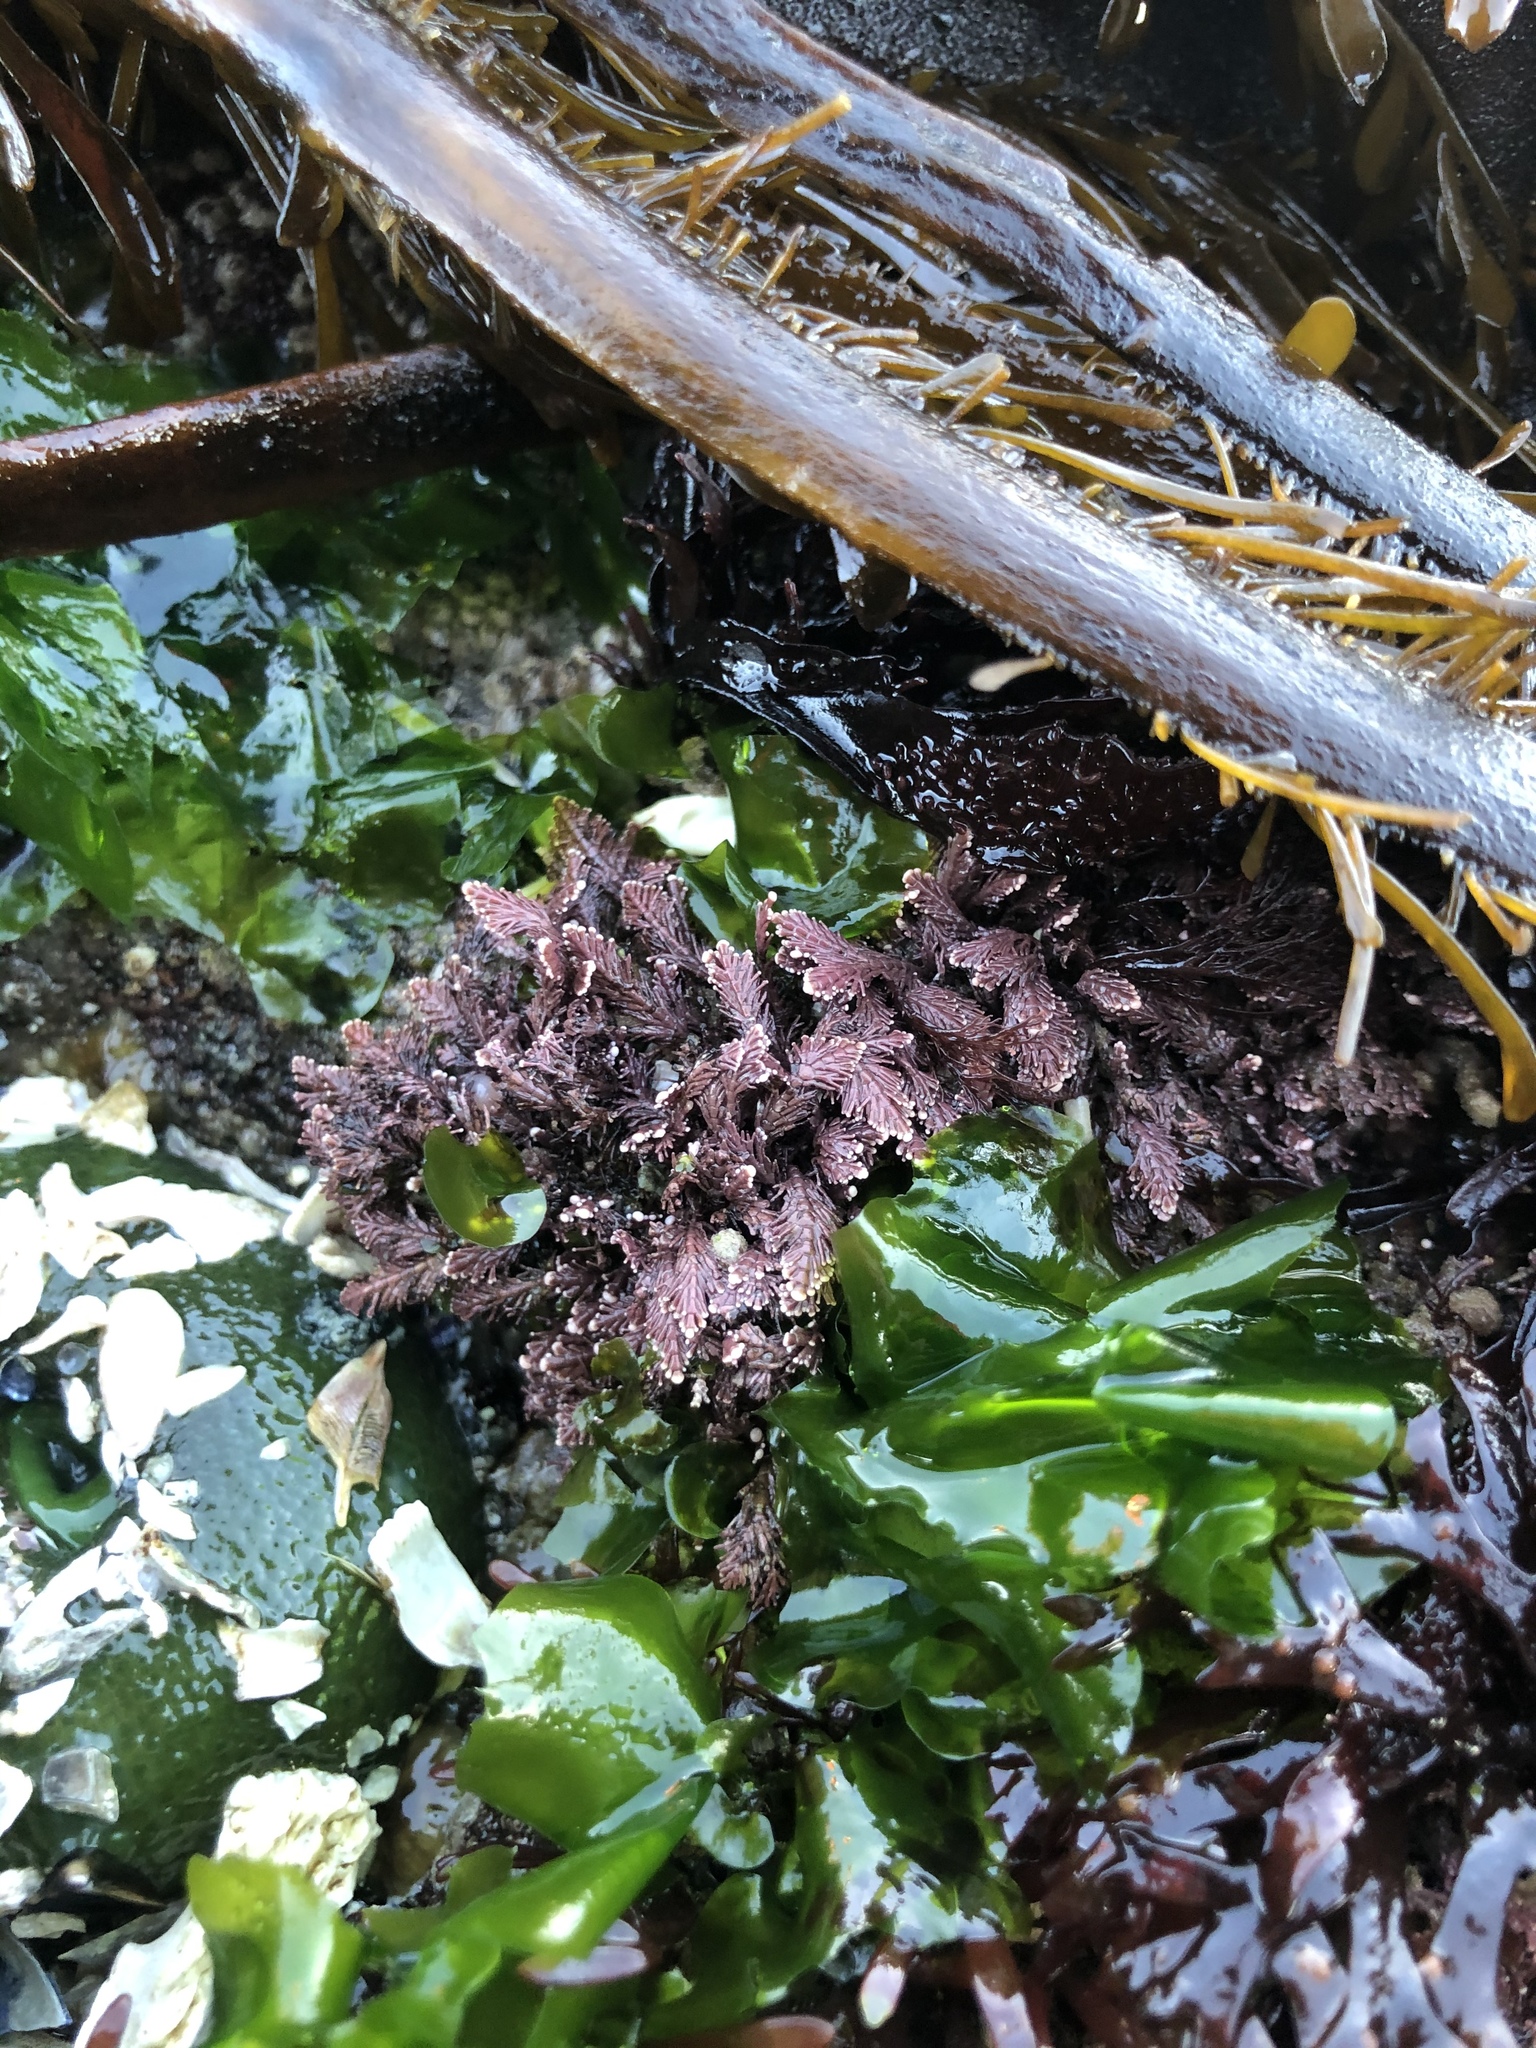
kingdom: Plantae
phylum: Rhodophyta
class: Florideophyceae
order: Corallinales
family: Corallinaceae
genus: Corallina
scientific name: Corallina vancouveriensis
